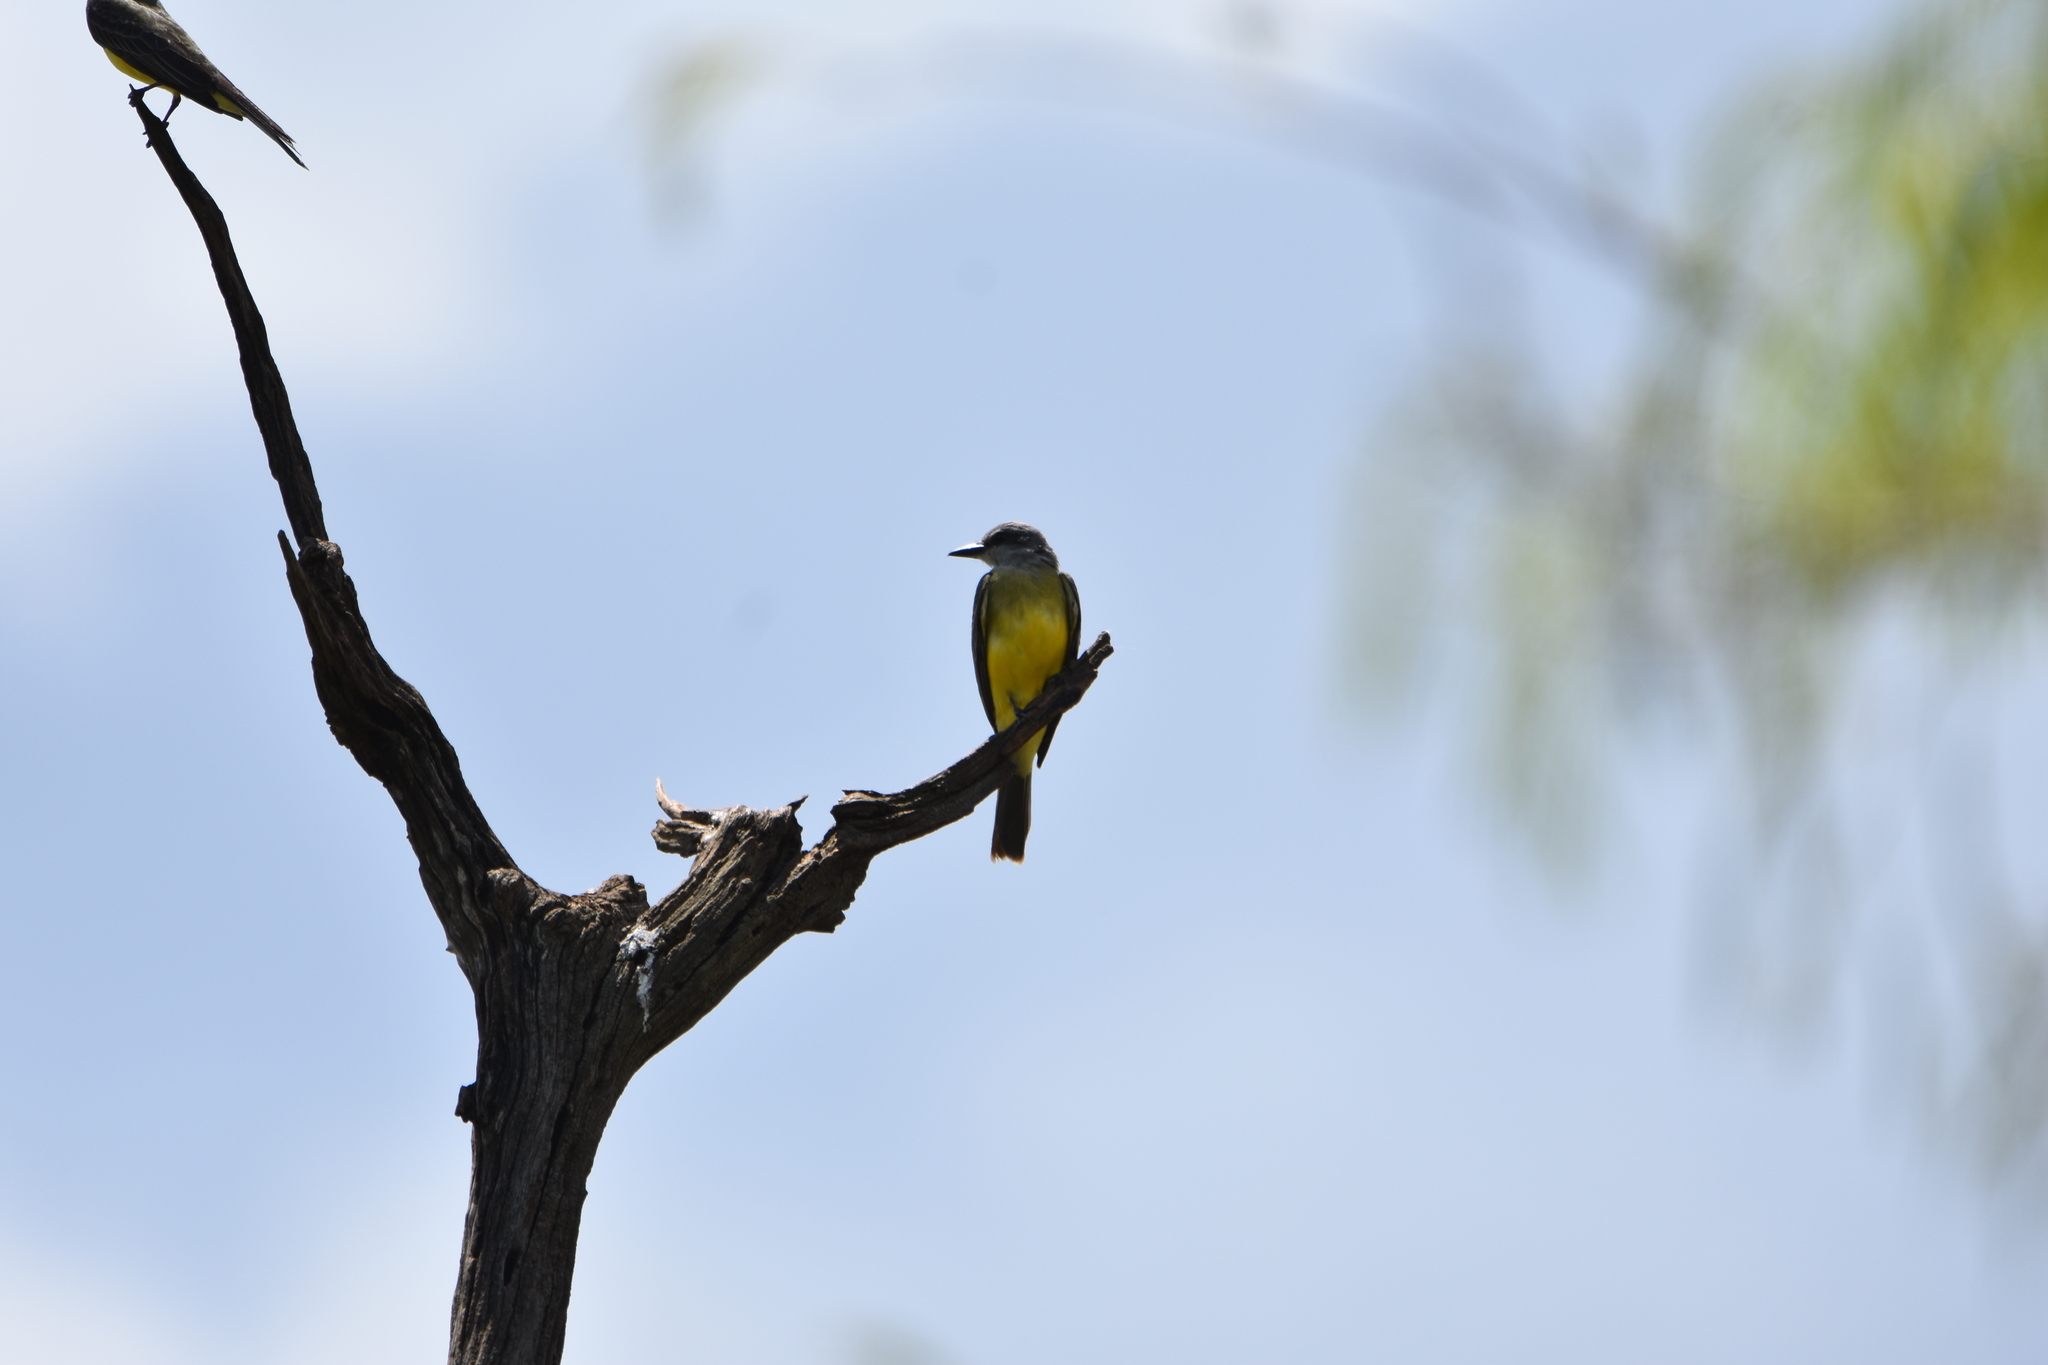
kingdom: Animalia
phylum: Chordata
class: Aves
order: Passeriformes
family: Tyrannidae
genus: Tyrannus
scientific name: Tyrannus melancholicus
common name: Tropical kingbird
